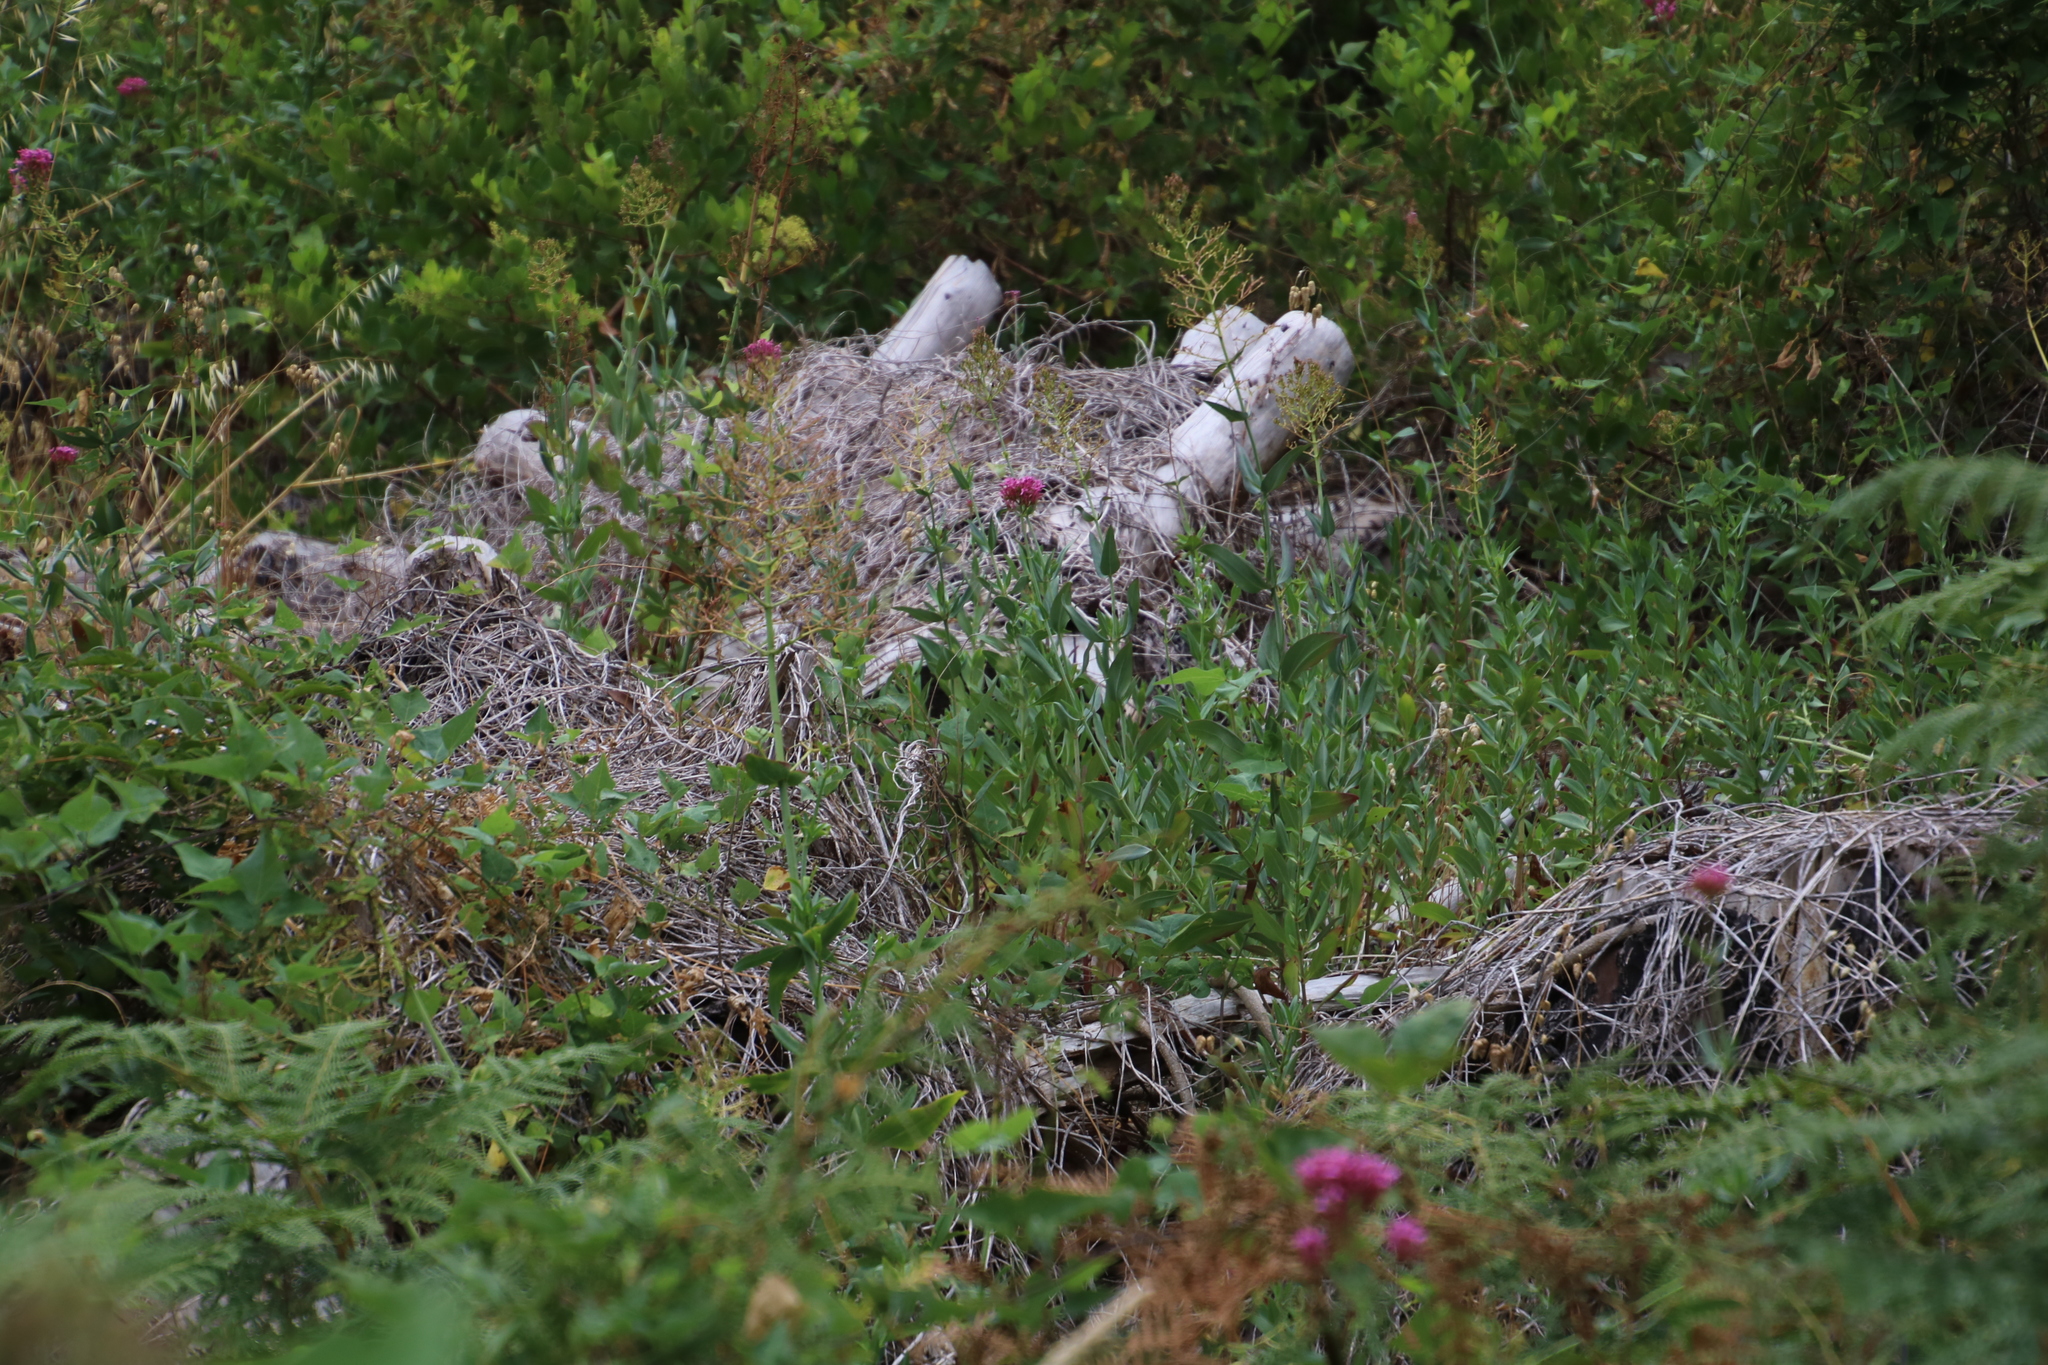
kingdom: Plantae
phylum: Tracheophyta
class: Magnoliopsida
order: Dipsacales
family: Caprifoliaceae
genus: Centranthus
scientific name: Centranthus ruber
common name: Red valerian
